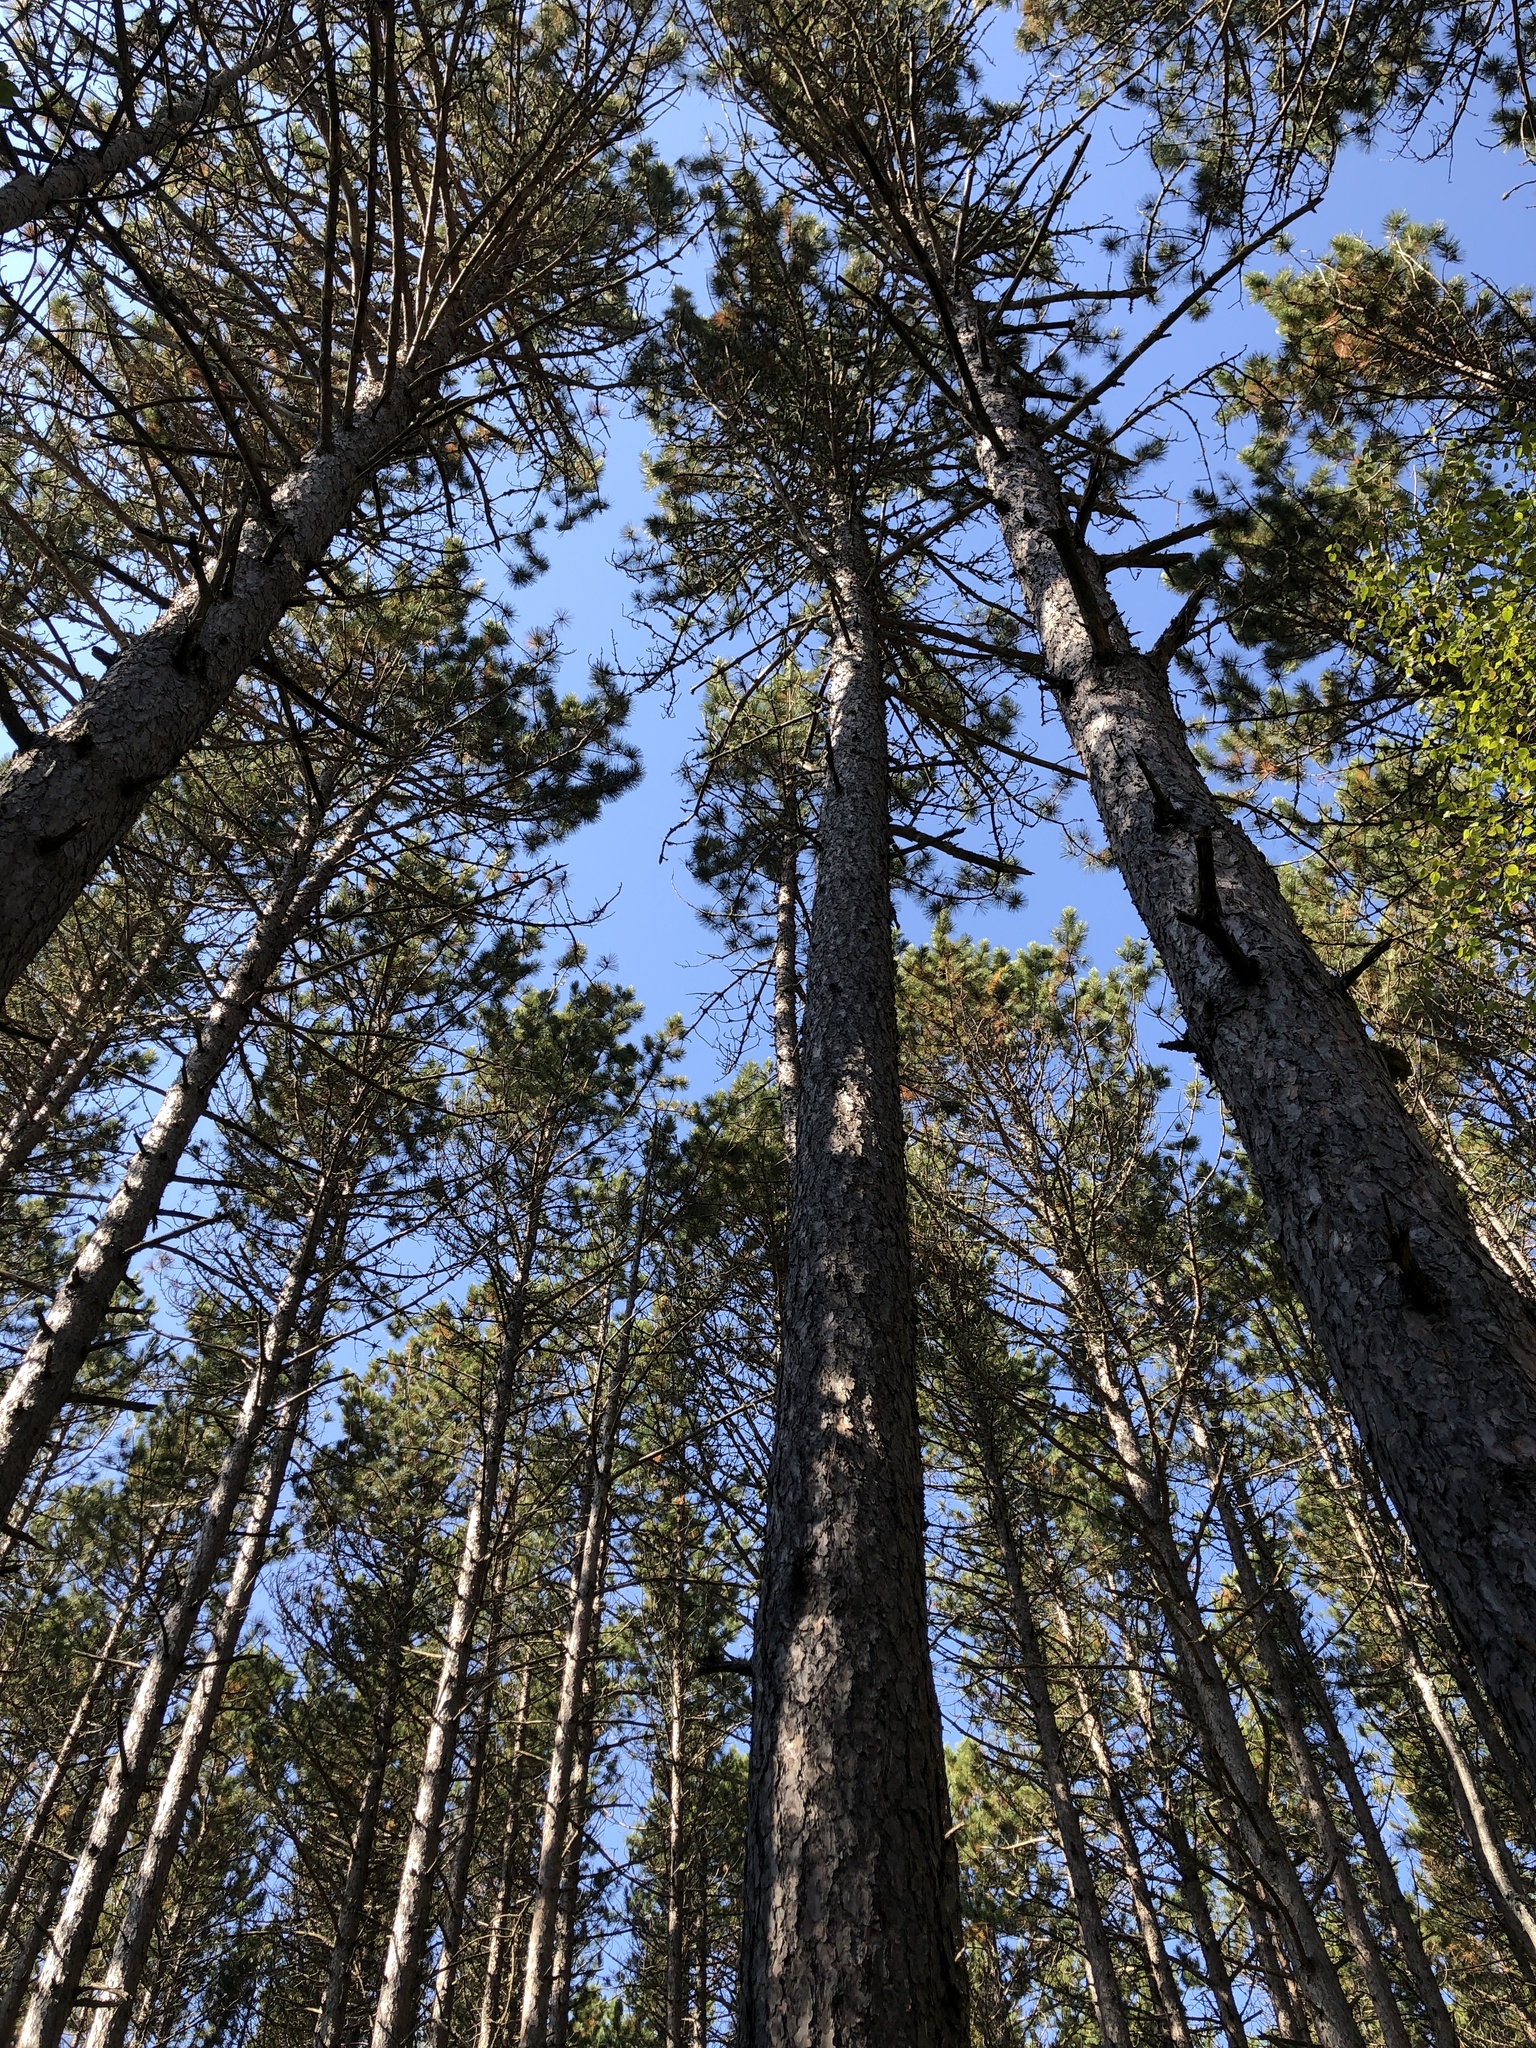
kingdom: Plantae
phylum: Tracheophyta
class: Pinopsida
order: Pinales
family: Pinaceae
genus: Pinus
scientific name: Pinus resinosa
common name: Norway pine
